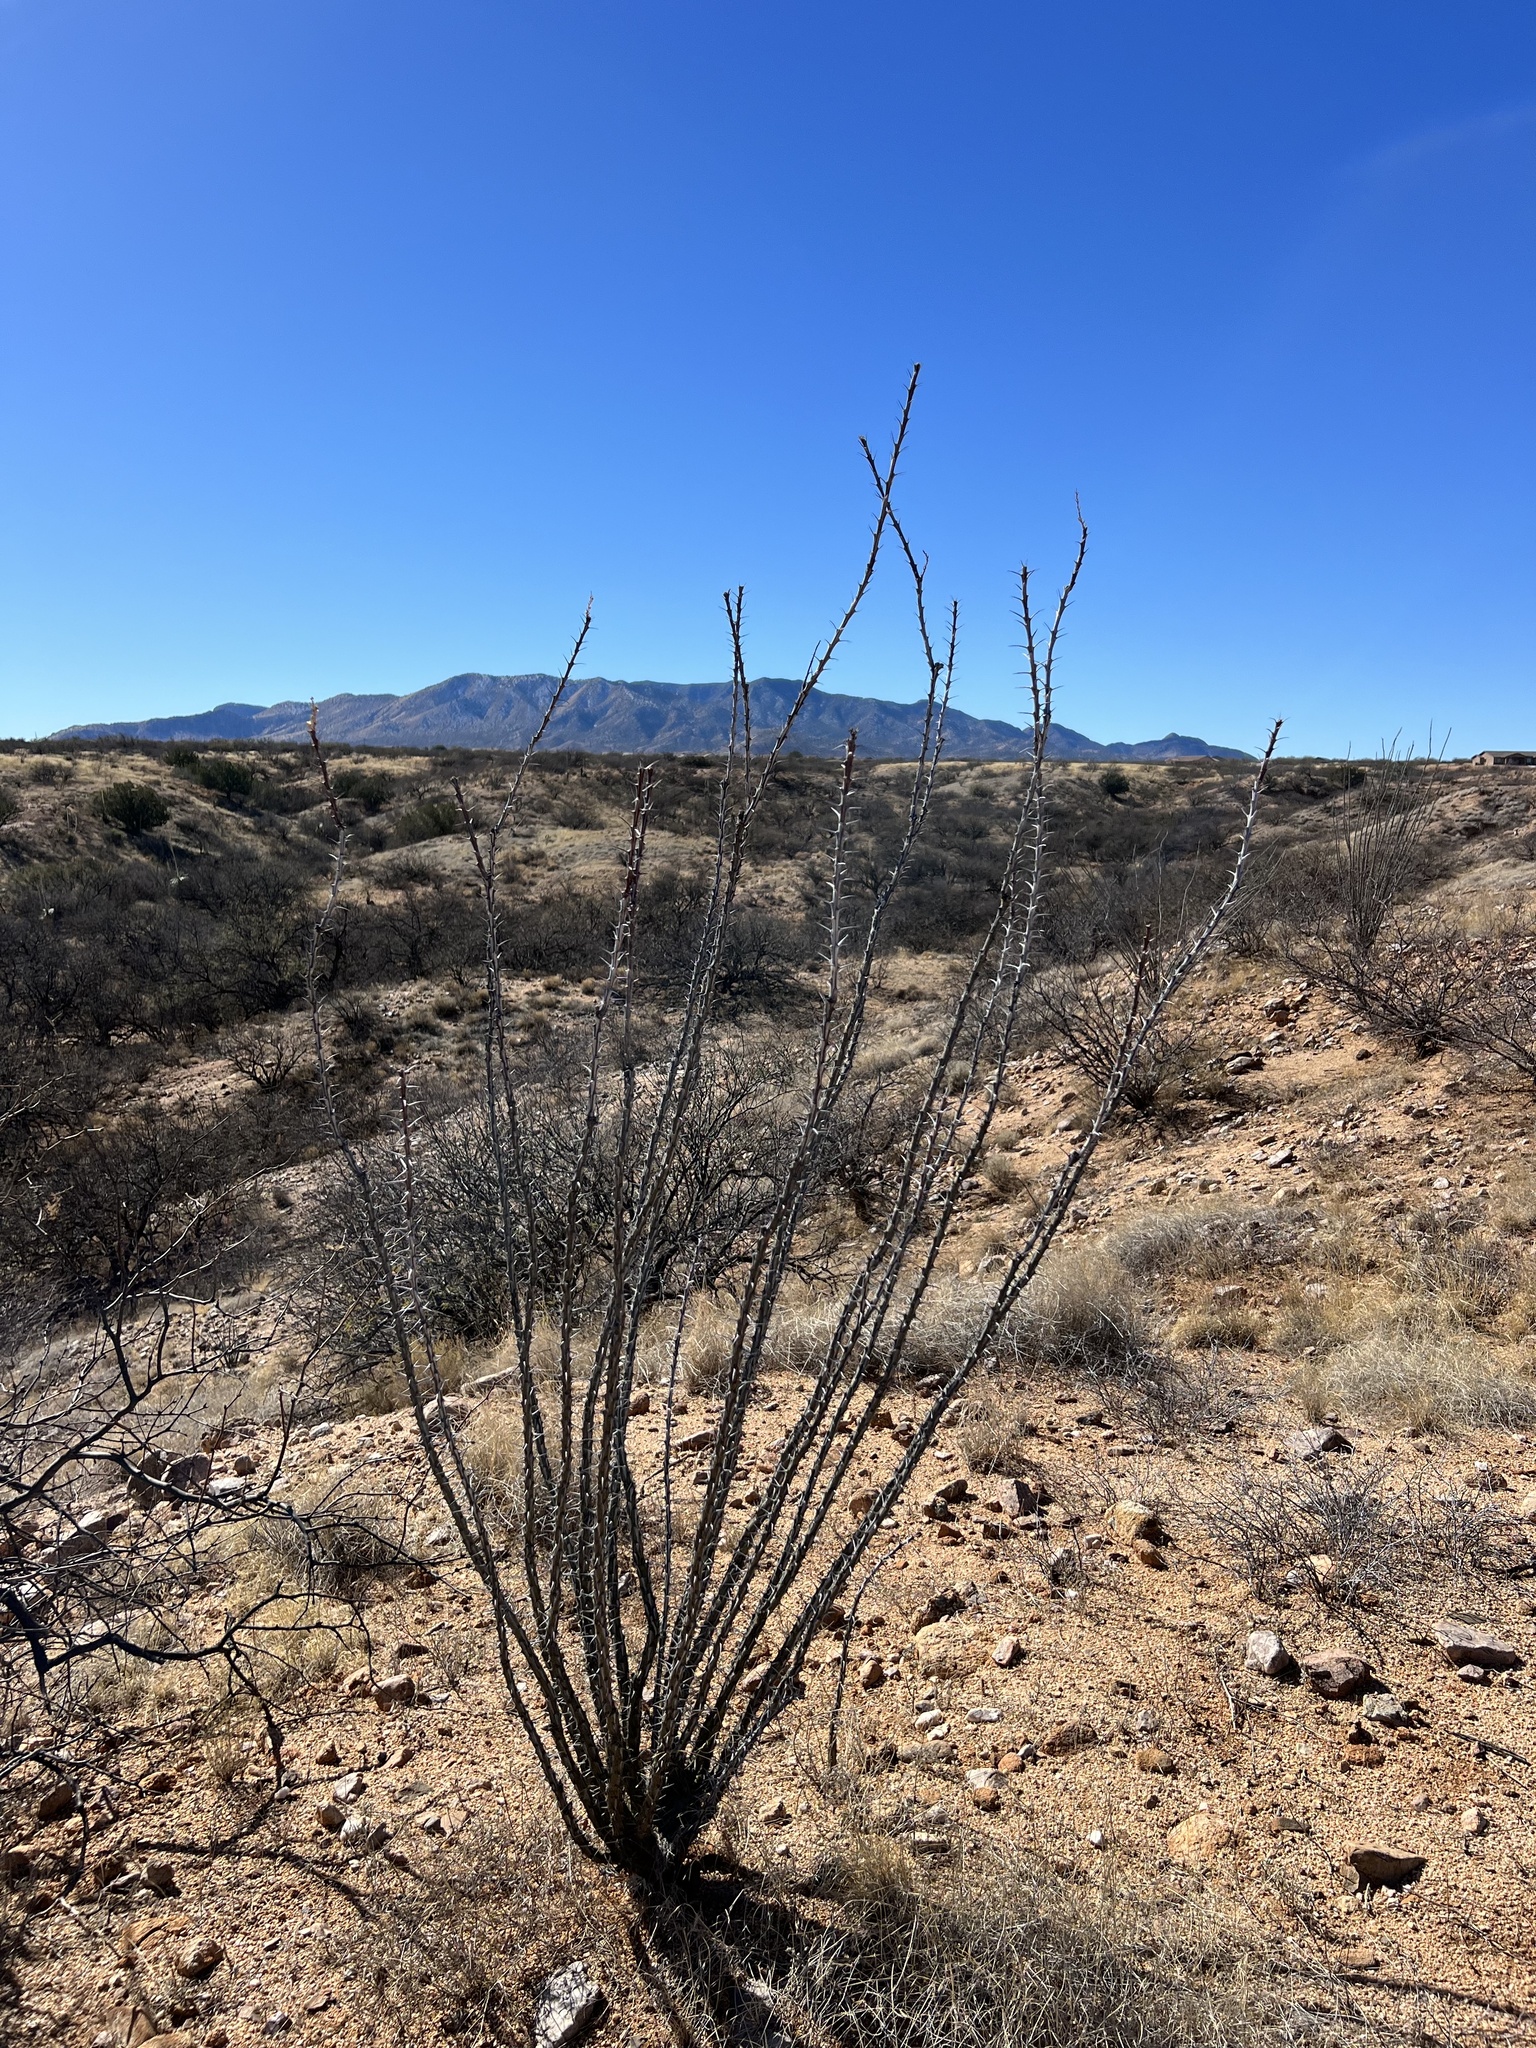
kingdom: Plantae
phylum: Tracheophyta
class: Magnoliopsida
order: Ericales
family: Fouquieriaceae
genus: Fouquieria
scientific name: Fouquieria splendens
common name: Vine-cactus
